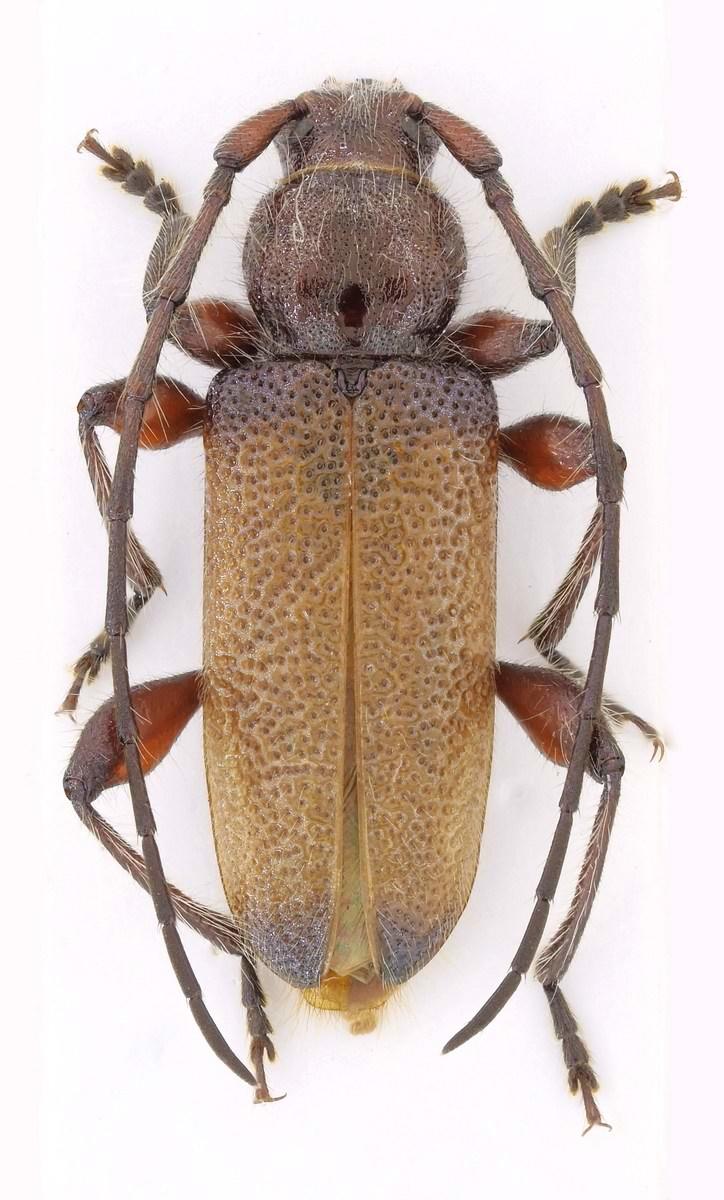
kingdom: Animalia
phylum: Arthropoda
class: Insecta
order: Coleoptera
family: Cerambycidae
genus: Callidiellum
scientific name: Callidiellum villosulum
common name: Longhorn beetle
